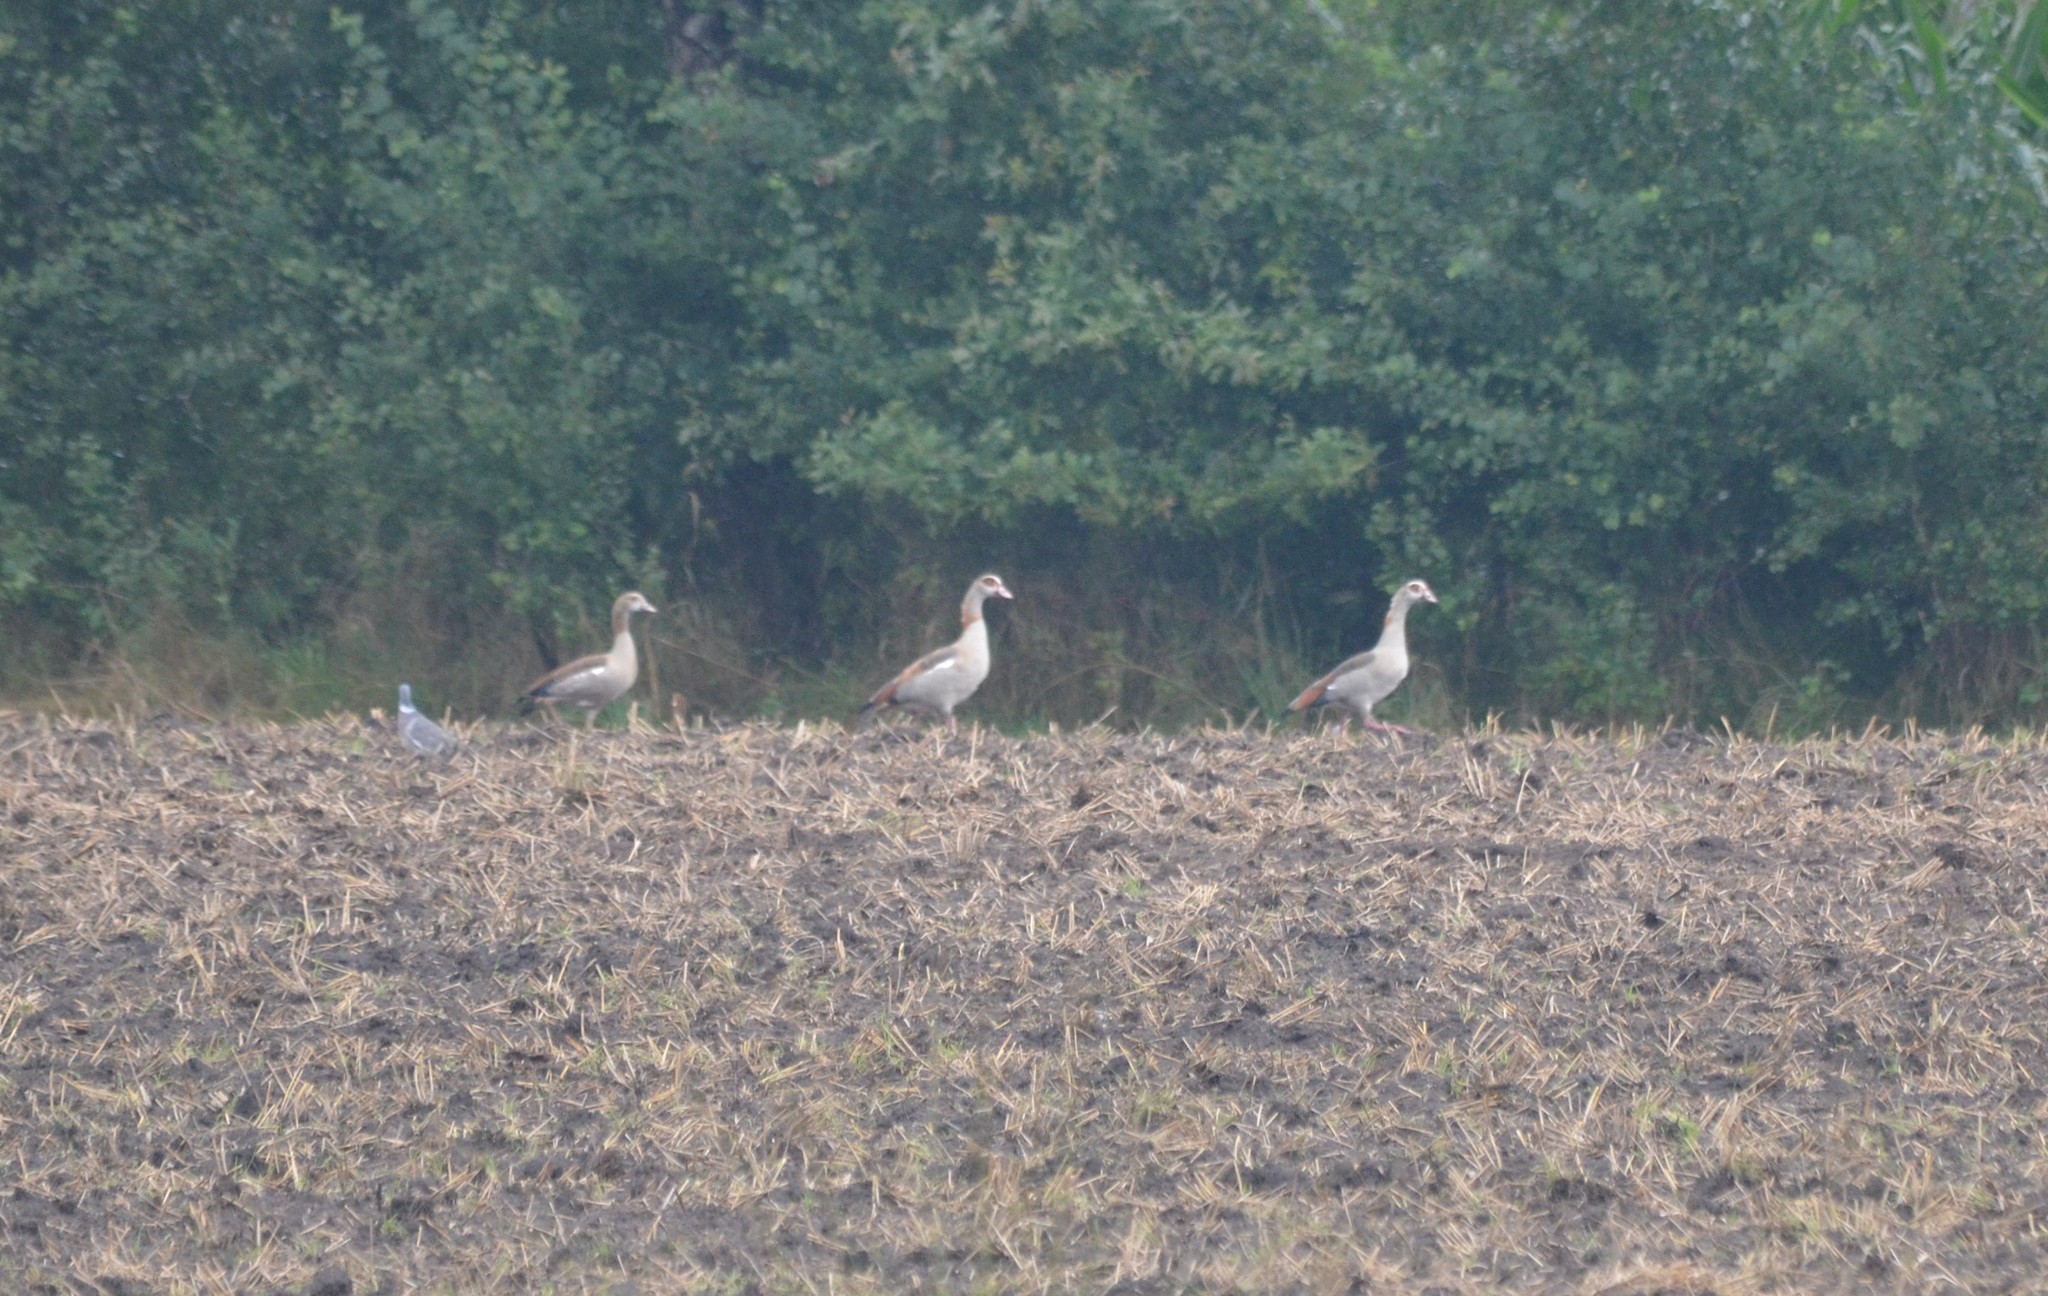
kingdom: Animalia
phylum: Chordata
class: Aves
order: Anseriformes
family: Anatidae
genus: Alopochen
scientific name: Alopochen aegyptiaca
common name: Egyptian goose
